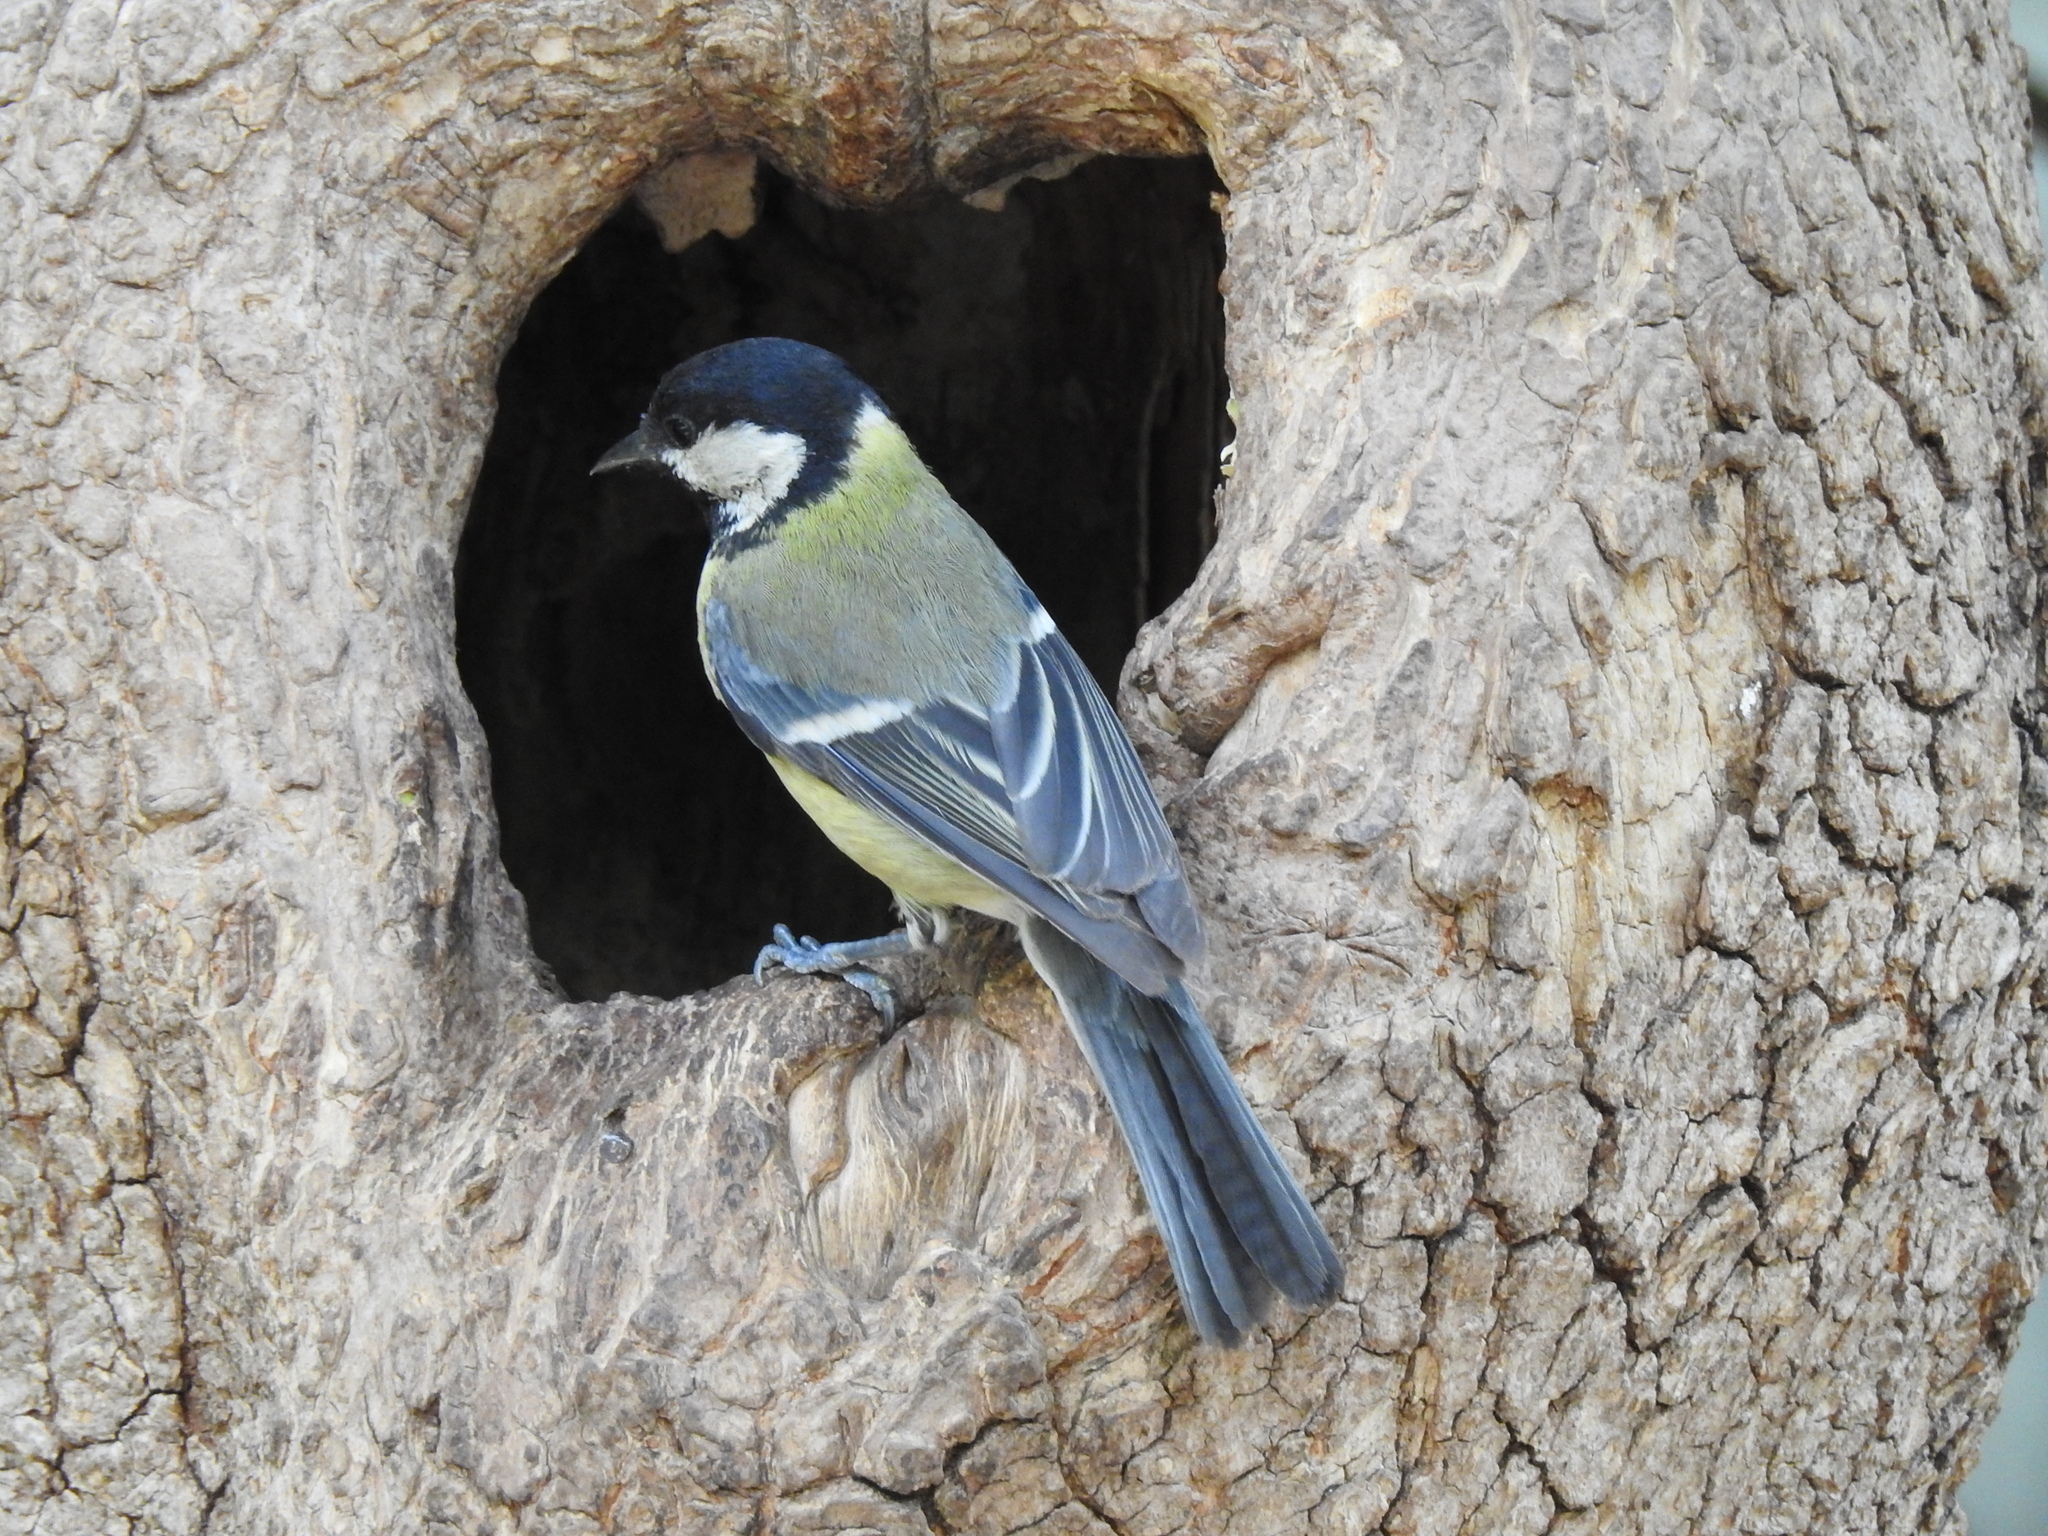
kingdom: Animalia
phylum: Chordata
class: Aves
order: Passeriformes
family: Paridae
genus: Parus
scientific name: Parus major
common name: Great tit
